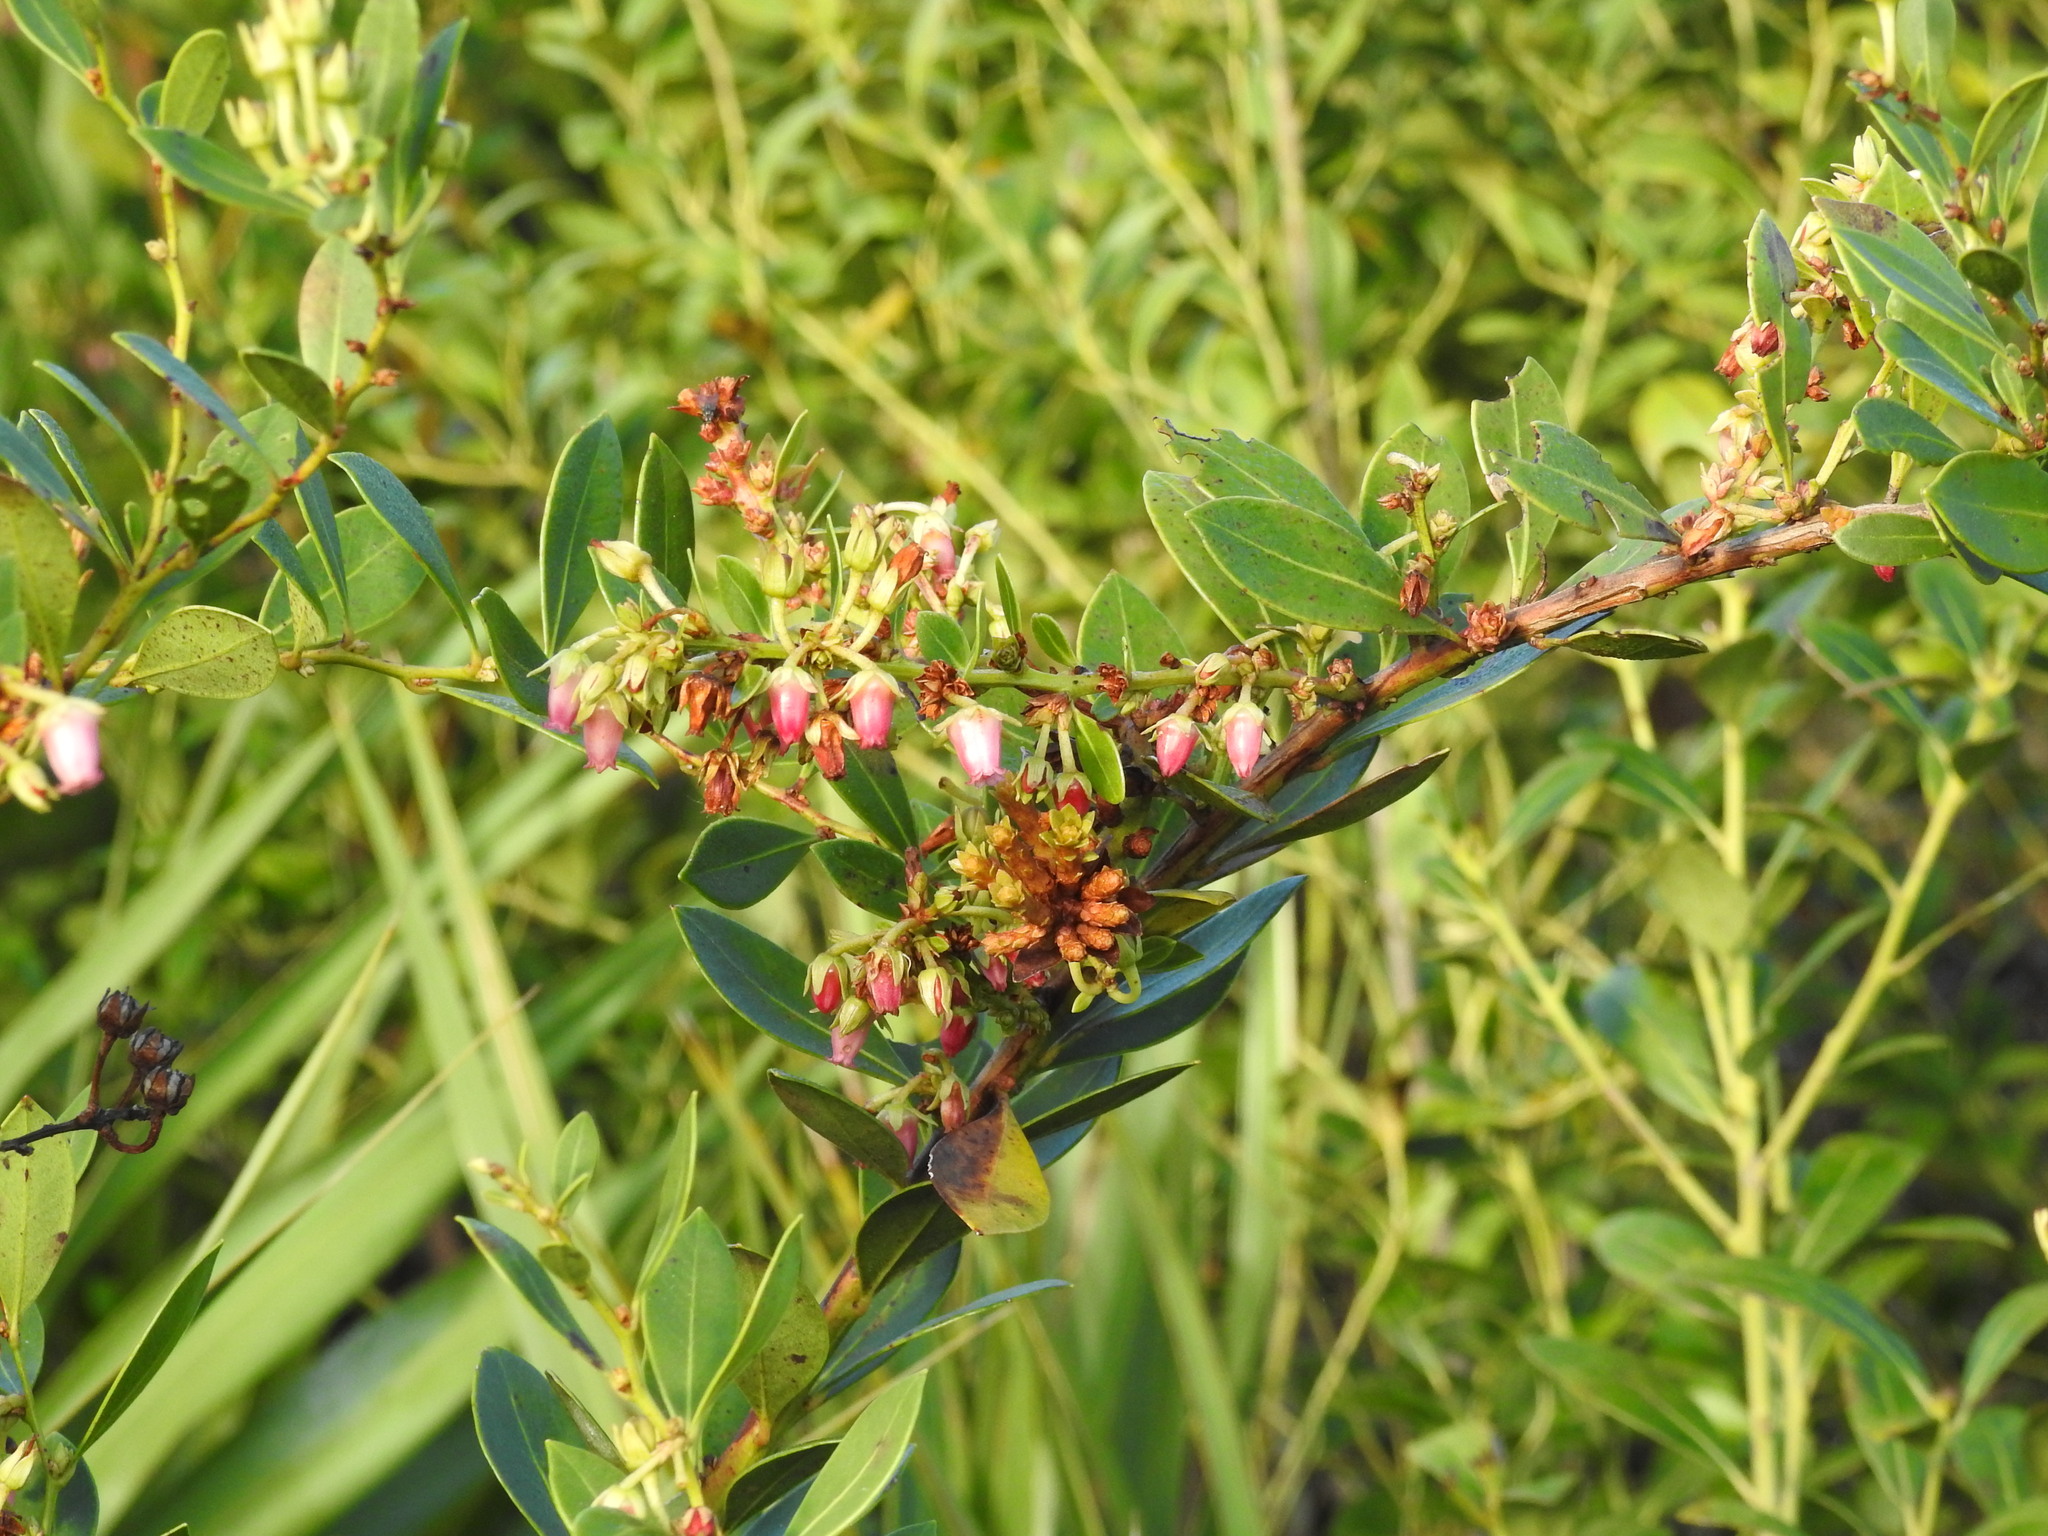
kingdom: Plantae
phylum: Tracheophyta
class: Magnoliopsida
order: Ericales
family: Ericaceae
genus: Lyonia
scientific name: Lyonia lucida
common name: Fetterbush
